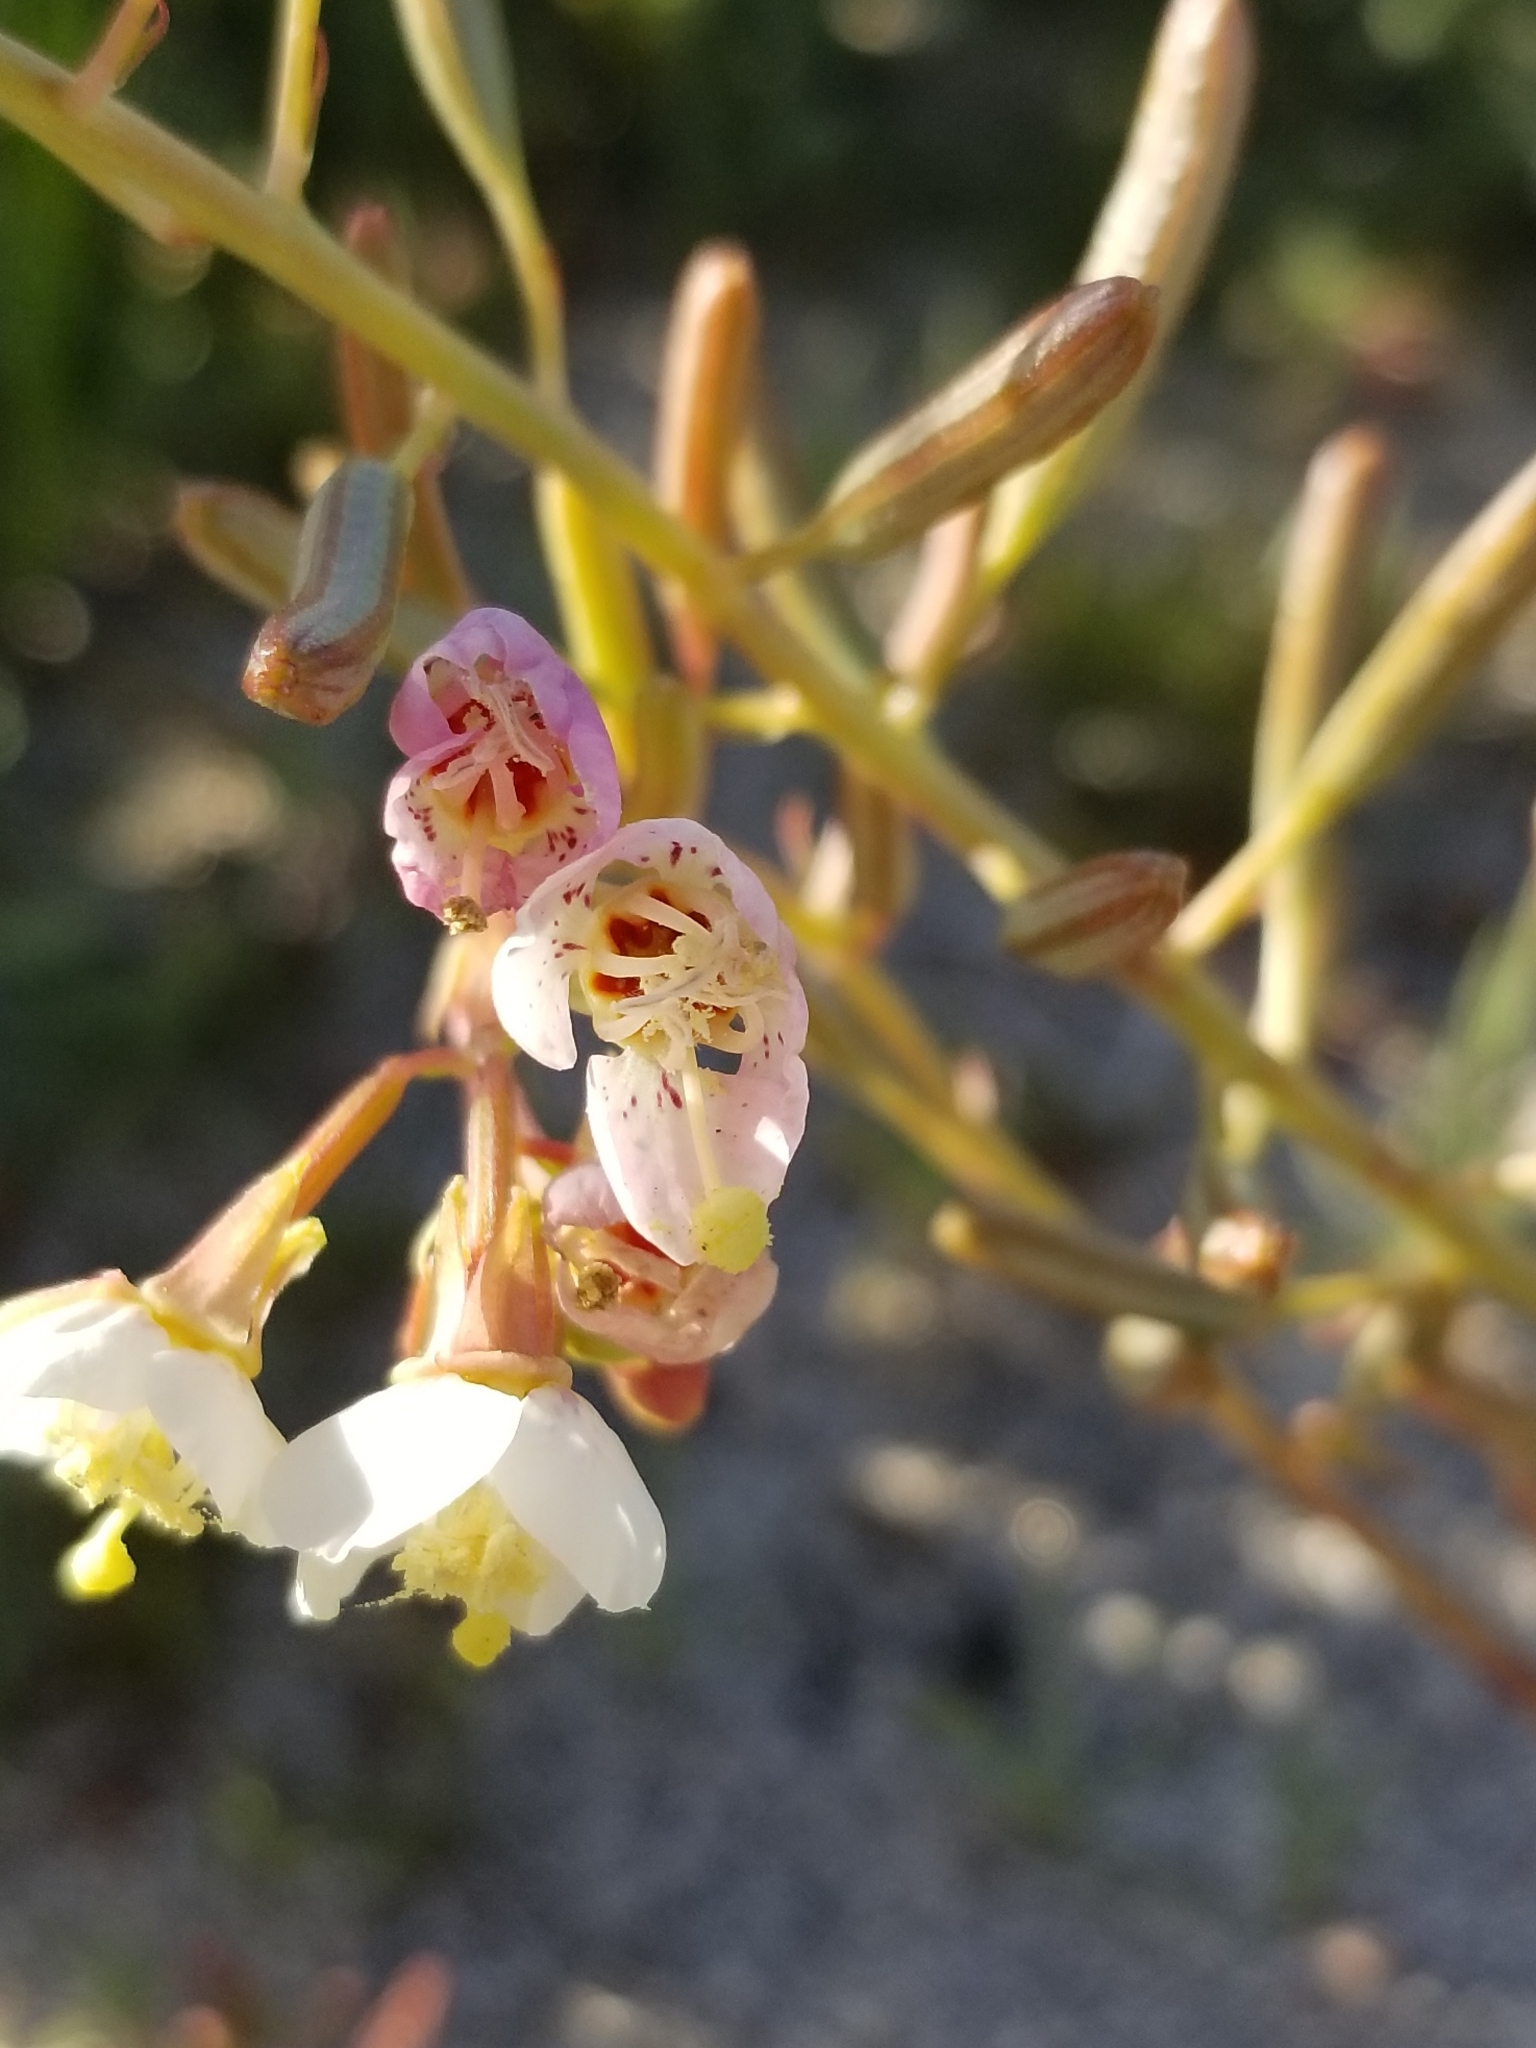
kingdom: Plantae
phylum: Tracheophyta
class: Magnoliopsida
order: Myrtales
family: Onagraceae
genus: Chylismia
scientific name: Chylismia claviformis
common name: Browneyes
